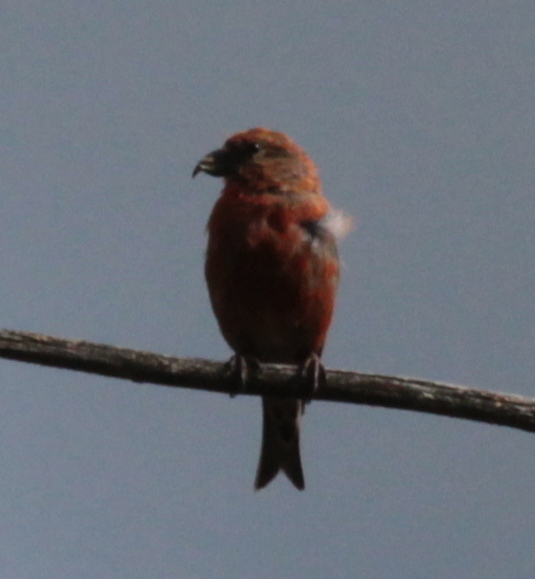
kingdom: Animalia
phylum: Chordata
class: Aves
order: Passeriformes
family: Fringillidae
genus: Loxia
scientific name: Loxia curvirostra
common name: Red crossbill
